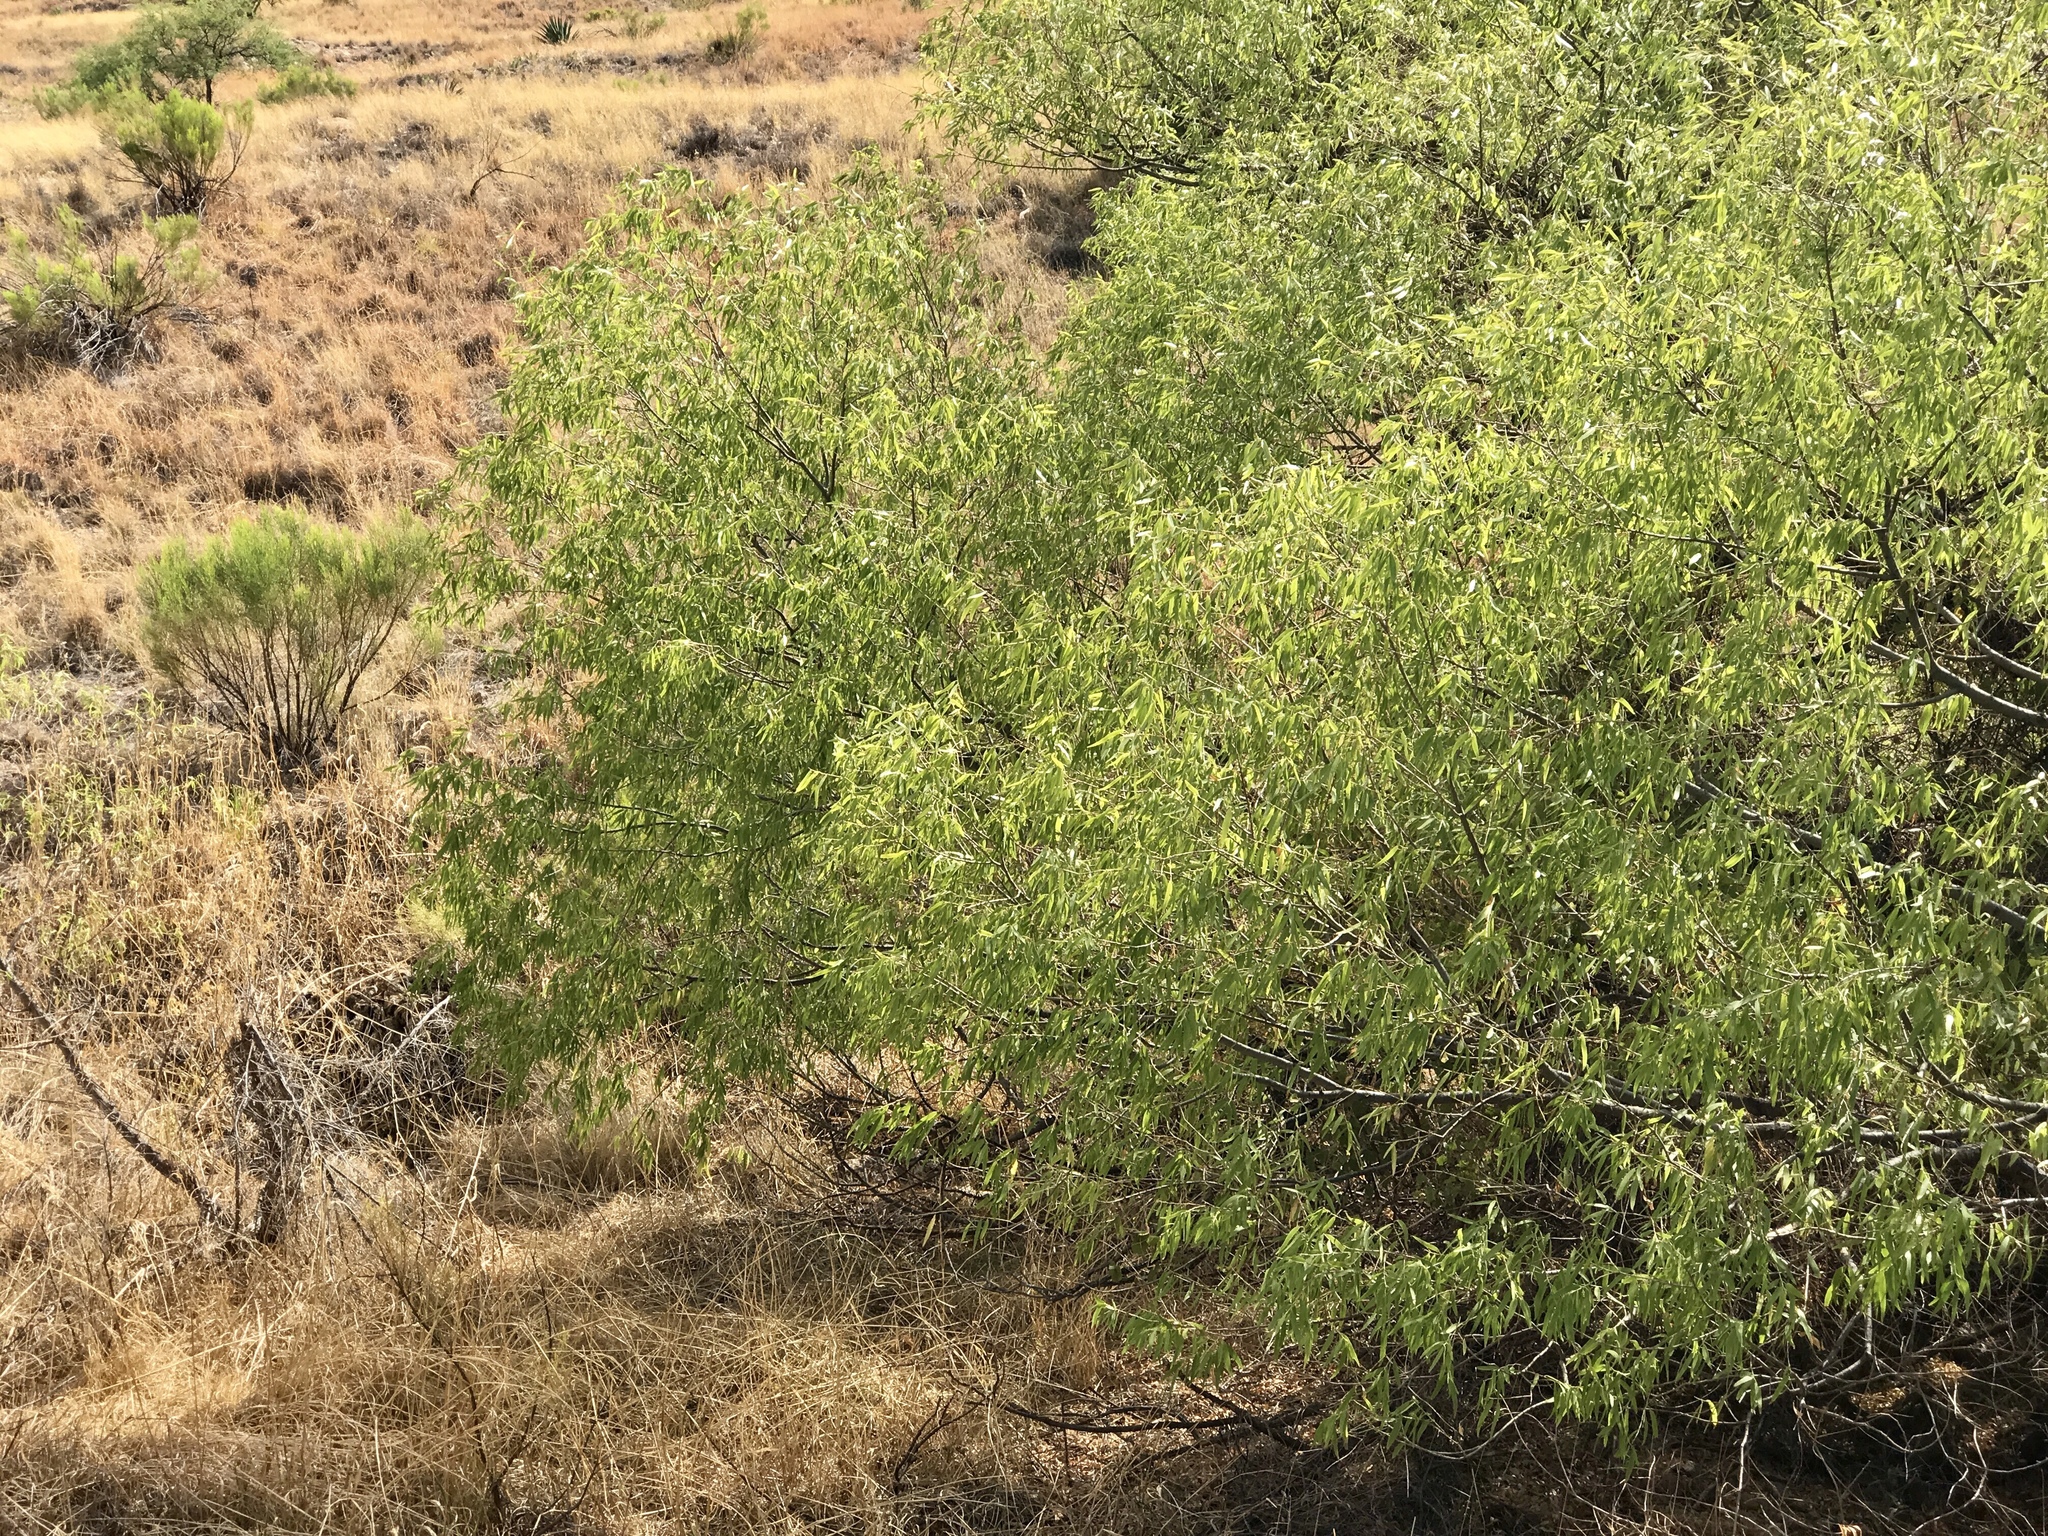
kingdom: Plantae
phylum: Tracheophyta
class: Magnoliopsida
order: Malpighiales
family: Salicaceae
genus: Salix
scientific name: Salix gooddingii
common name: Goodding's willow
